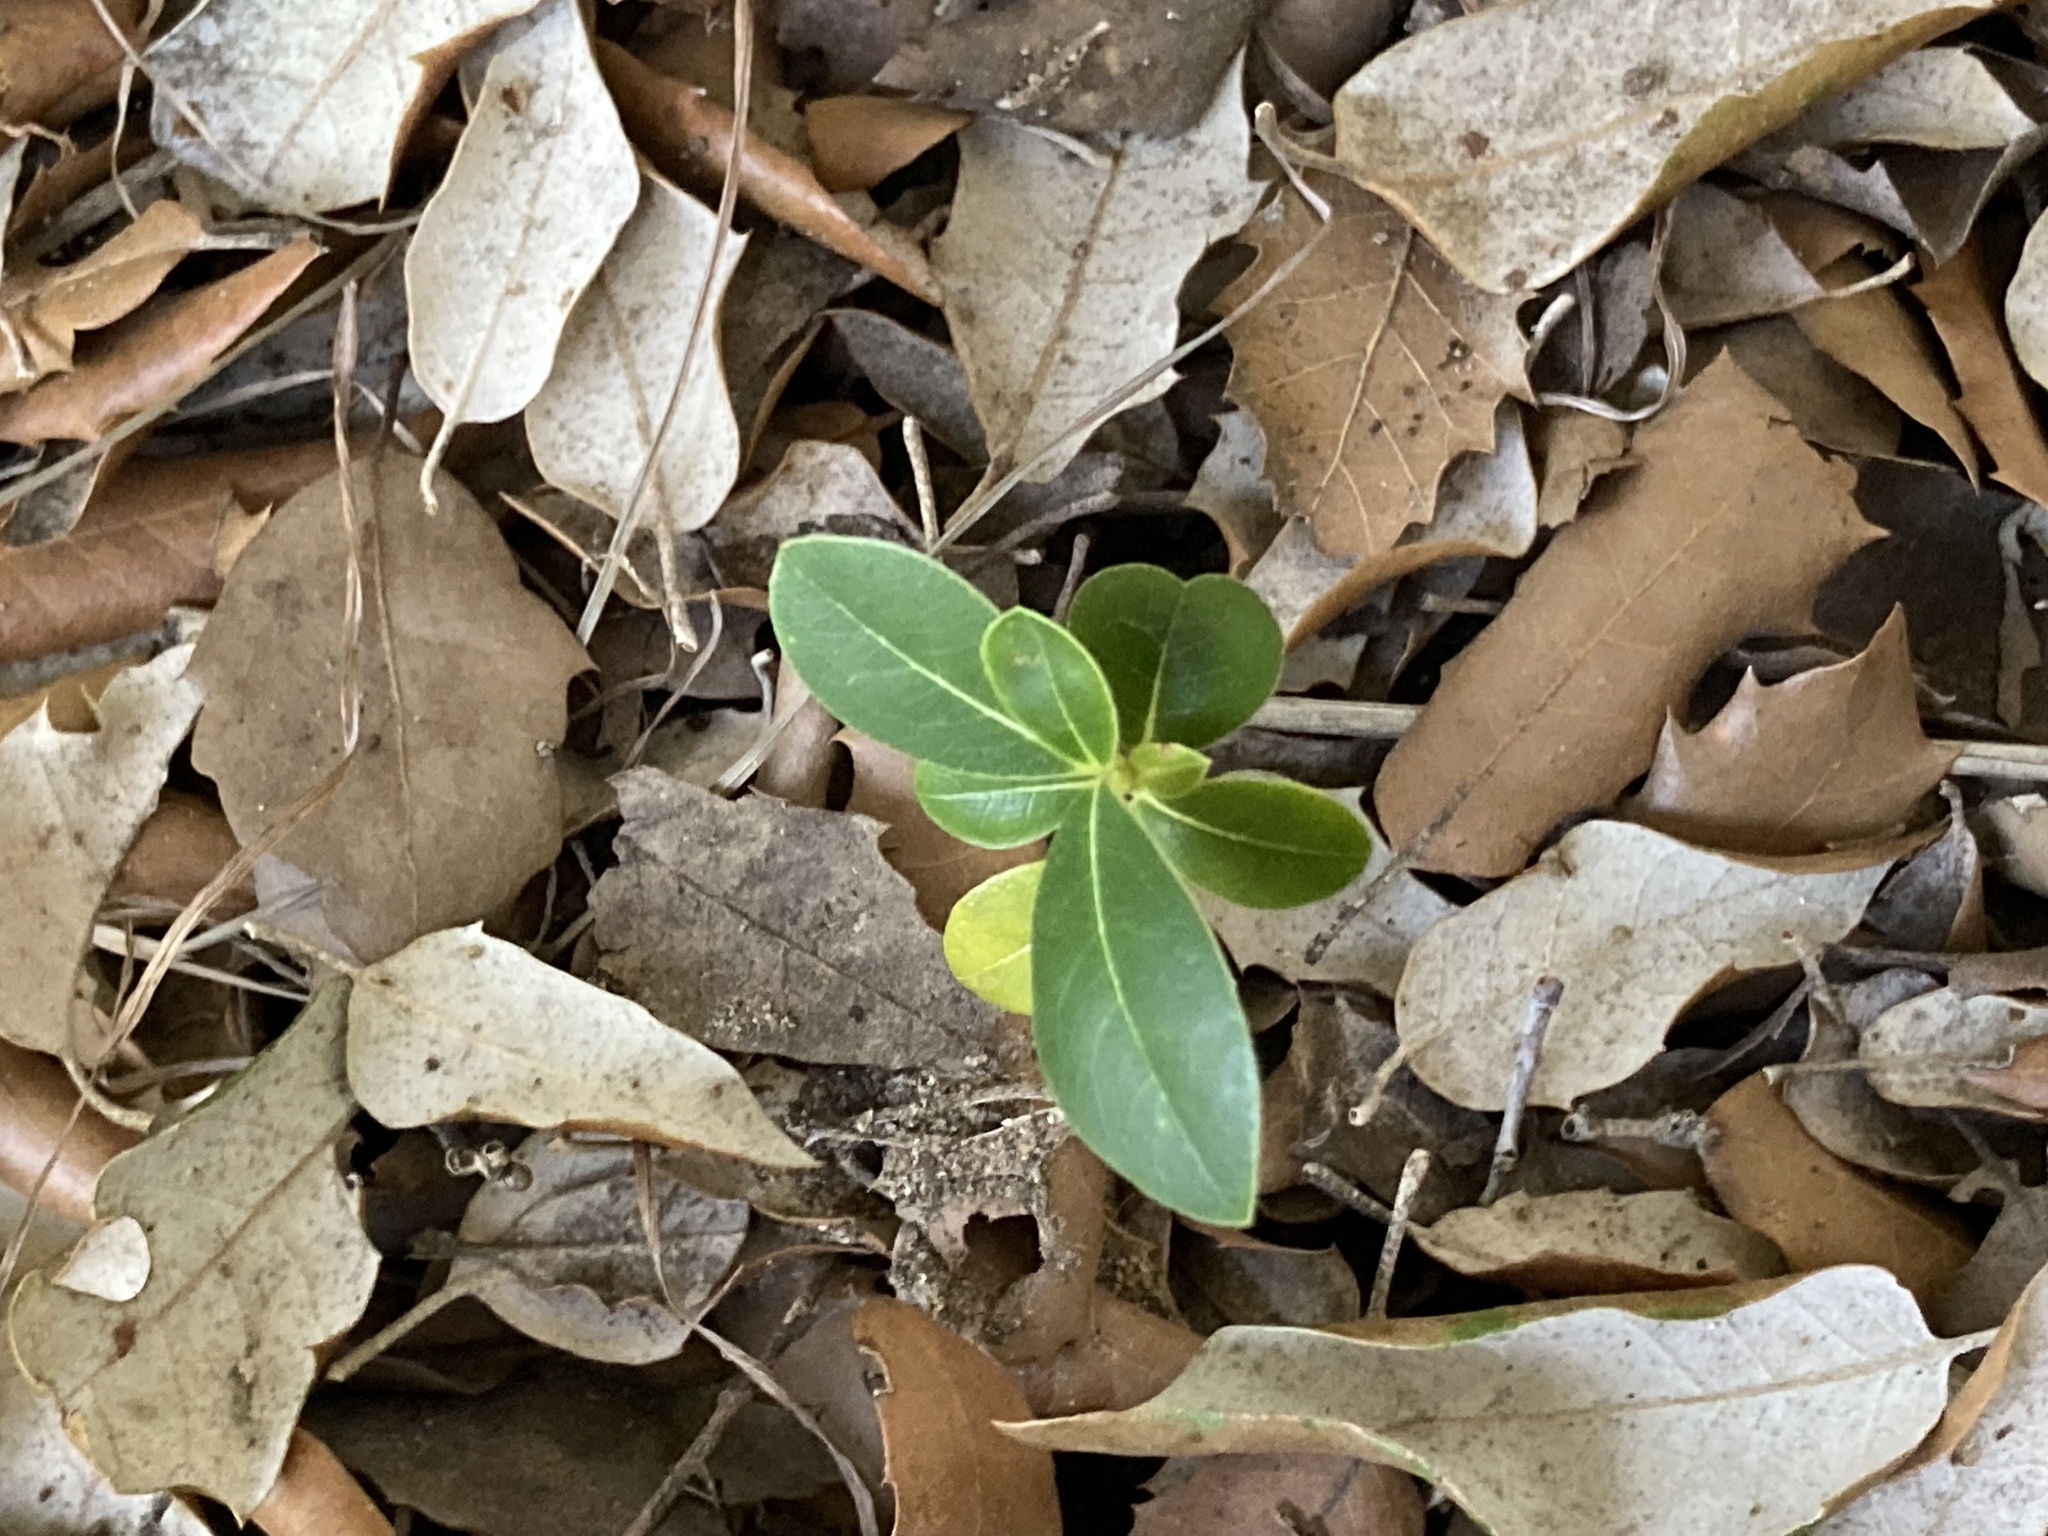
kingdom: Plantae
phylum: Tracheophyta
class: Magnoliopsida
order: Apiales
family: Pittosporaceae
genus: Pittosporum
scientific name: Pittosporum tobira
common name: Japanese cheesewood
